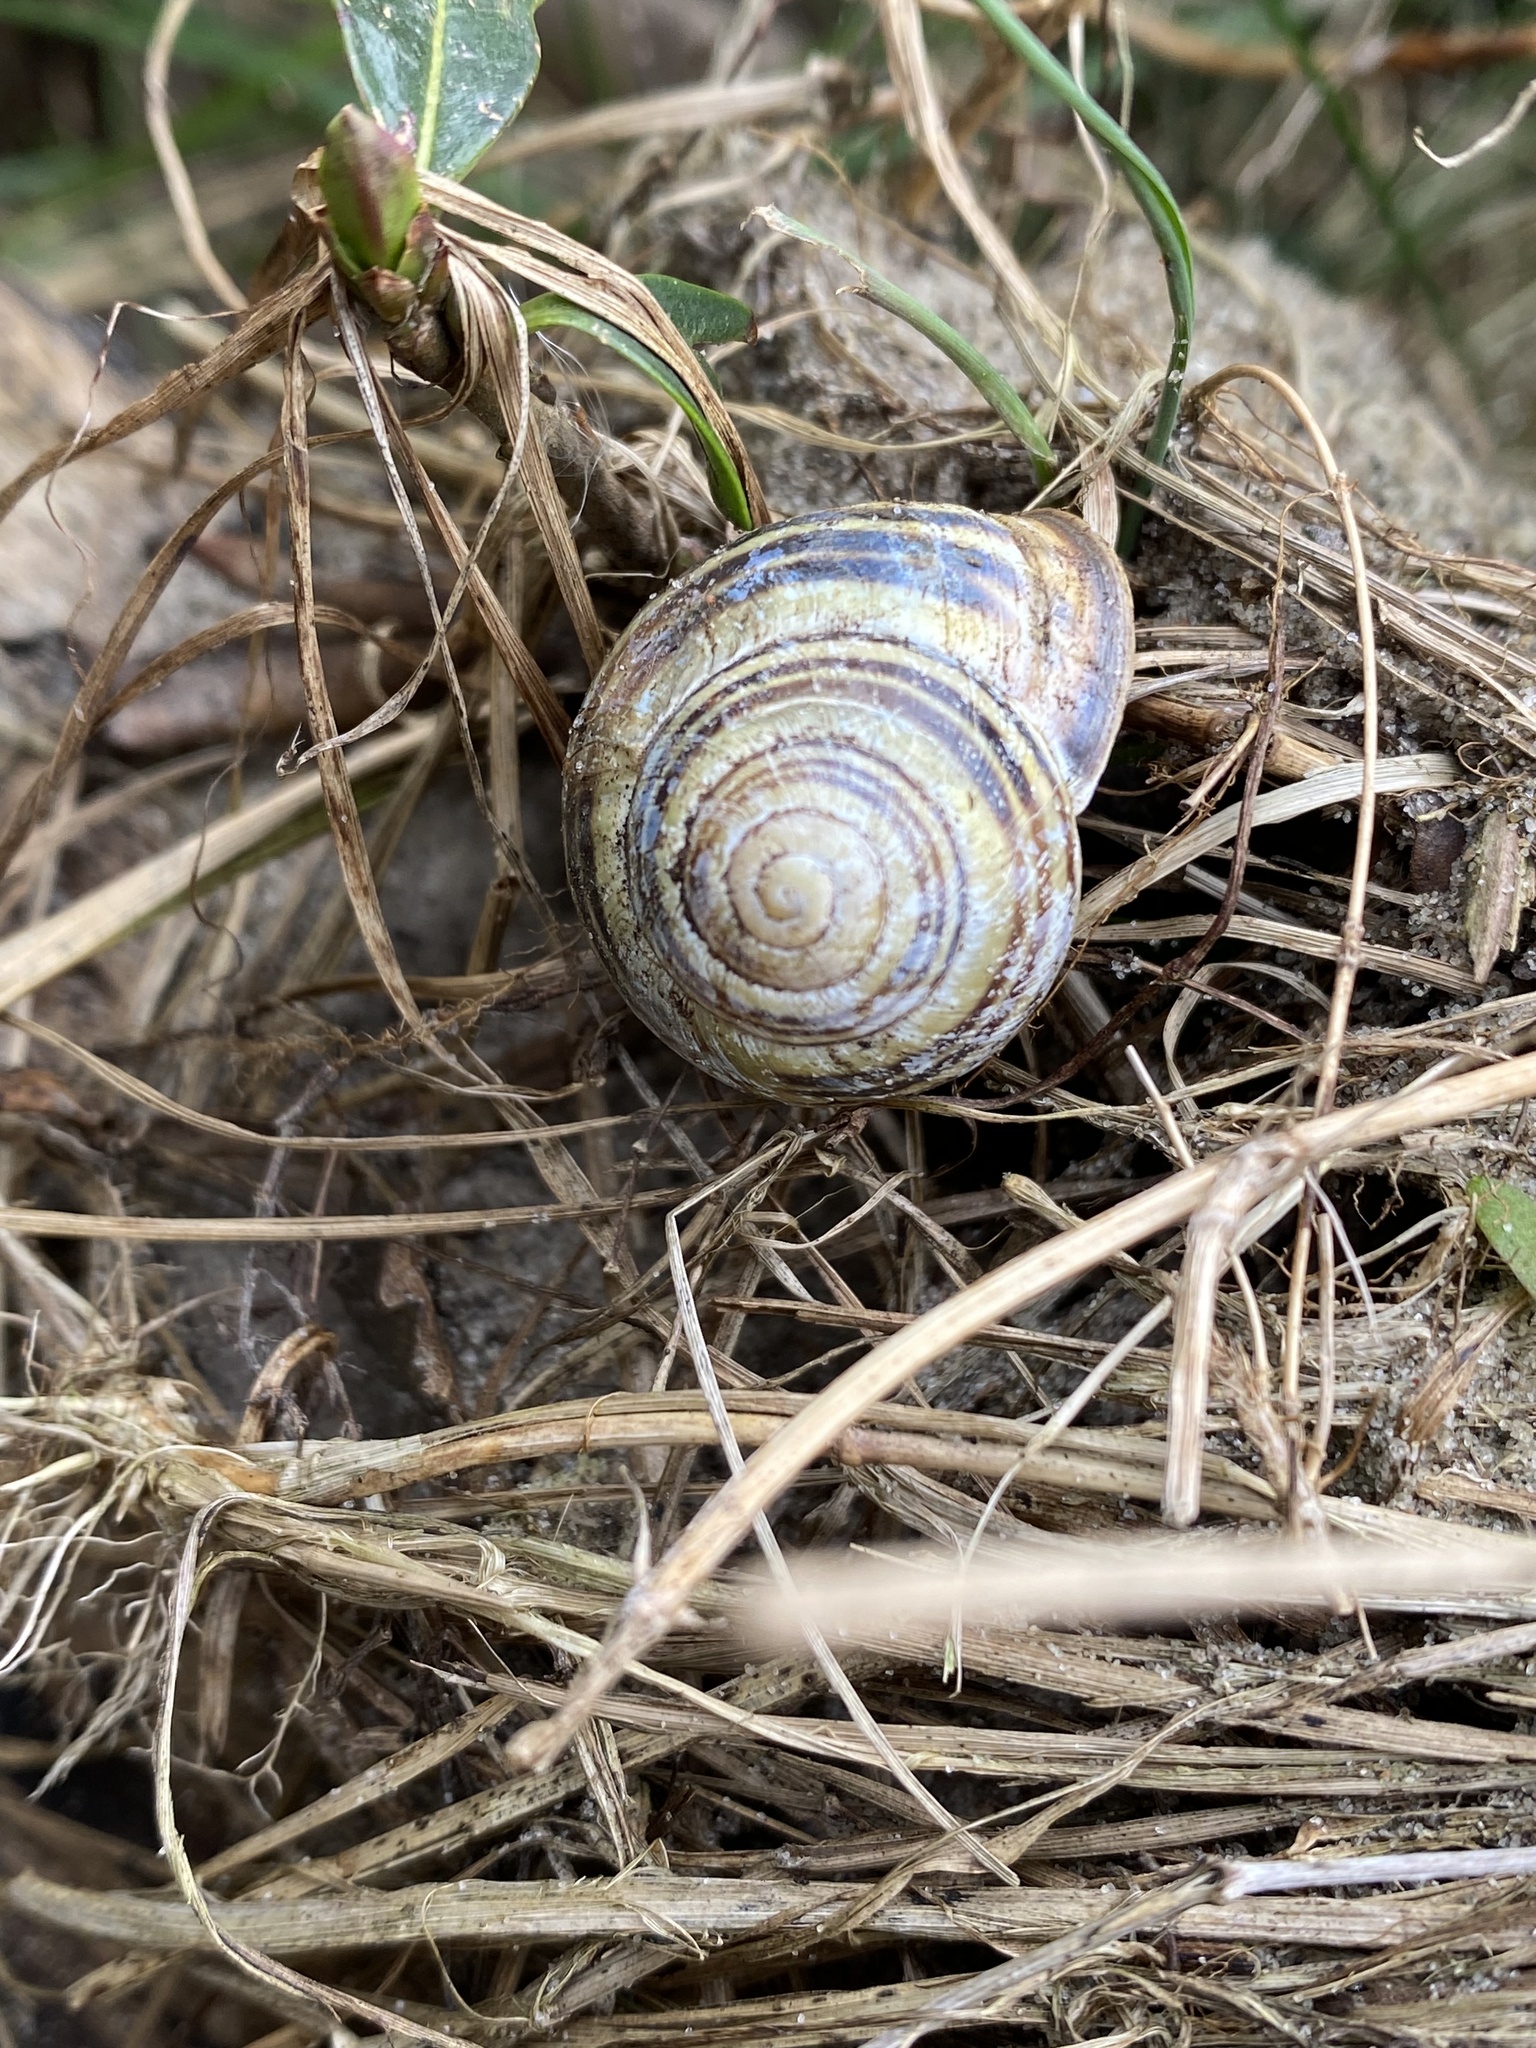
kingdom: Animalia
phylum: Mollusca
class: Gastropoda
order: Stylommatophora
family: Helicidae
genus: Cepaea
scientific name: Cepaea nemoralis
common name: Grovesnail
